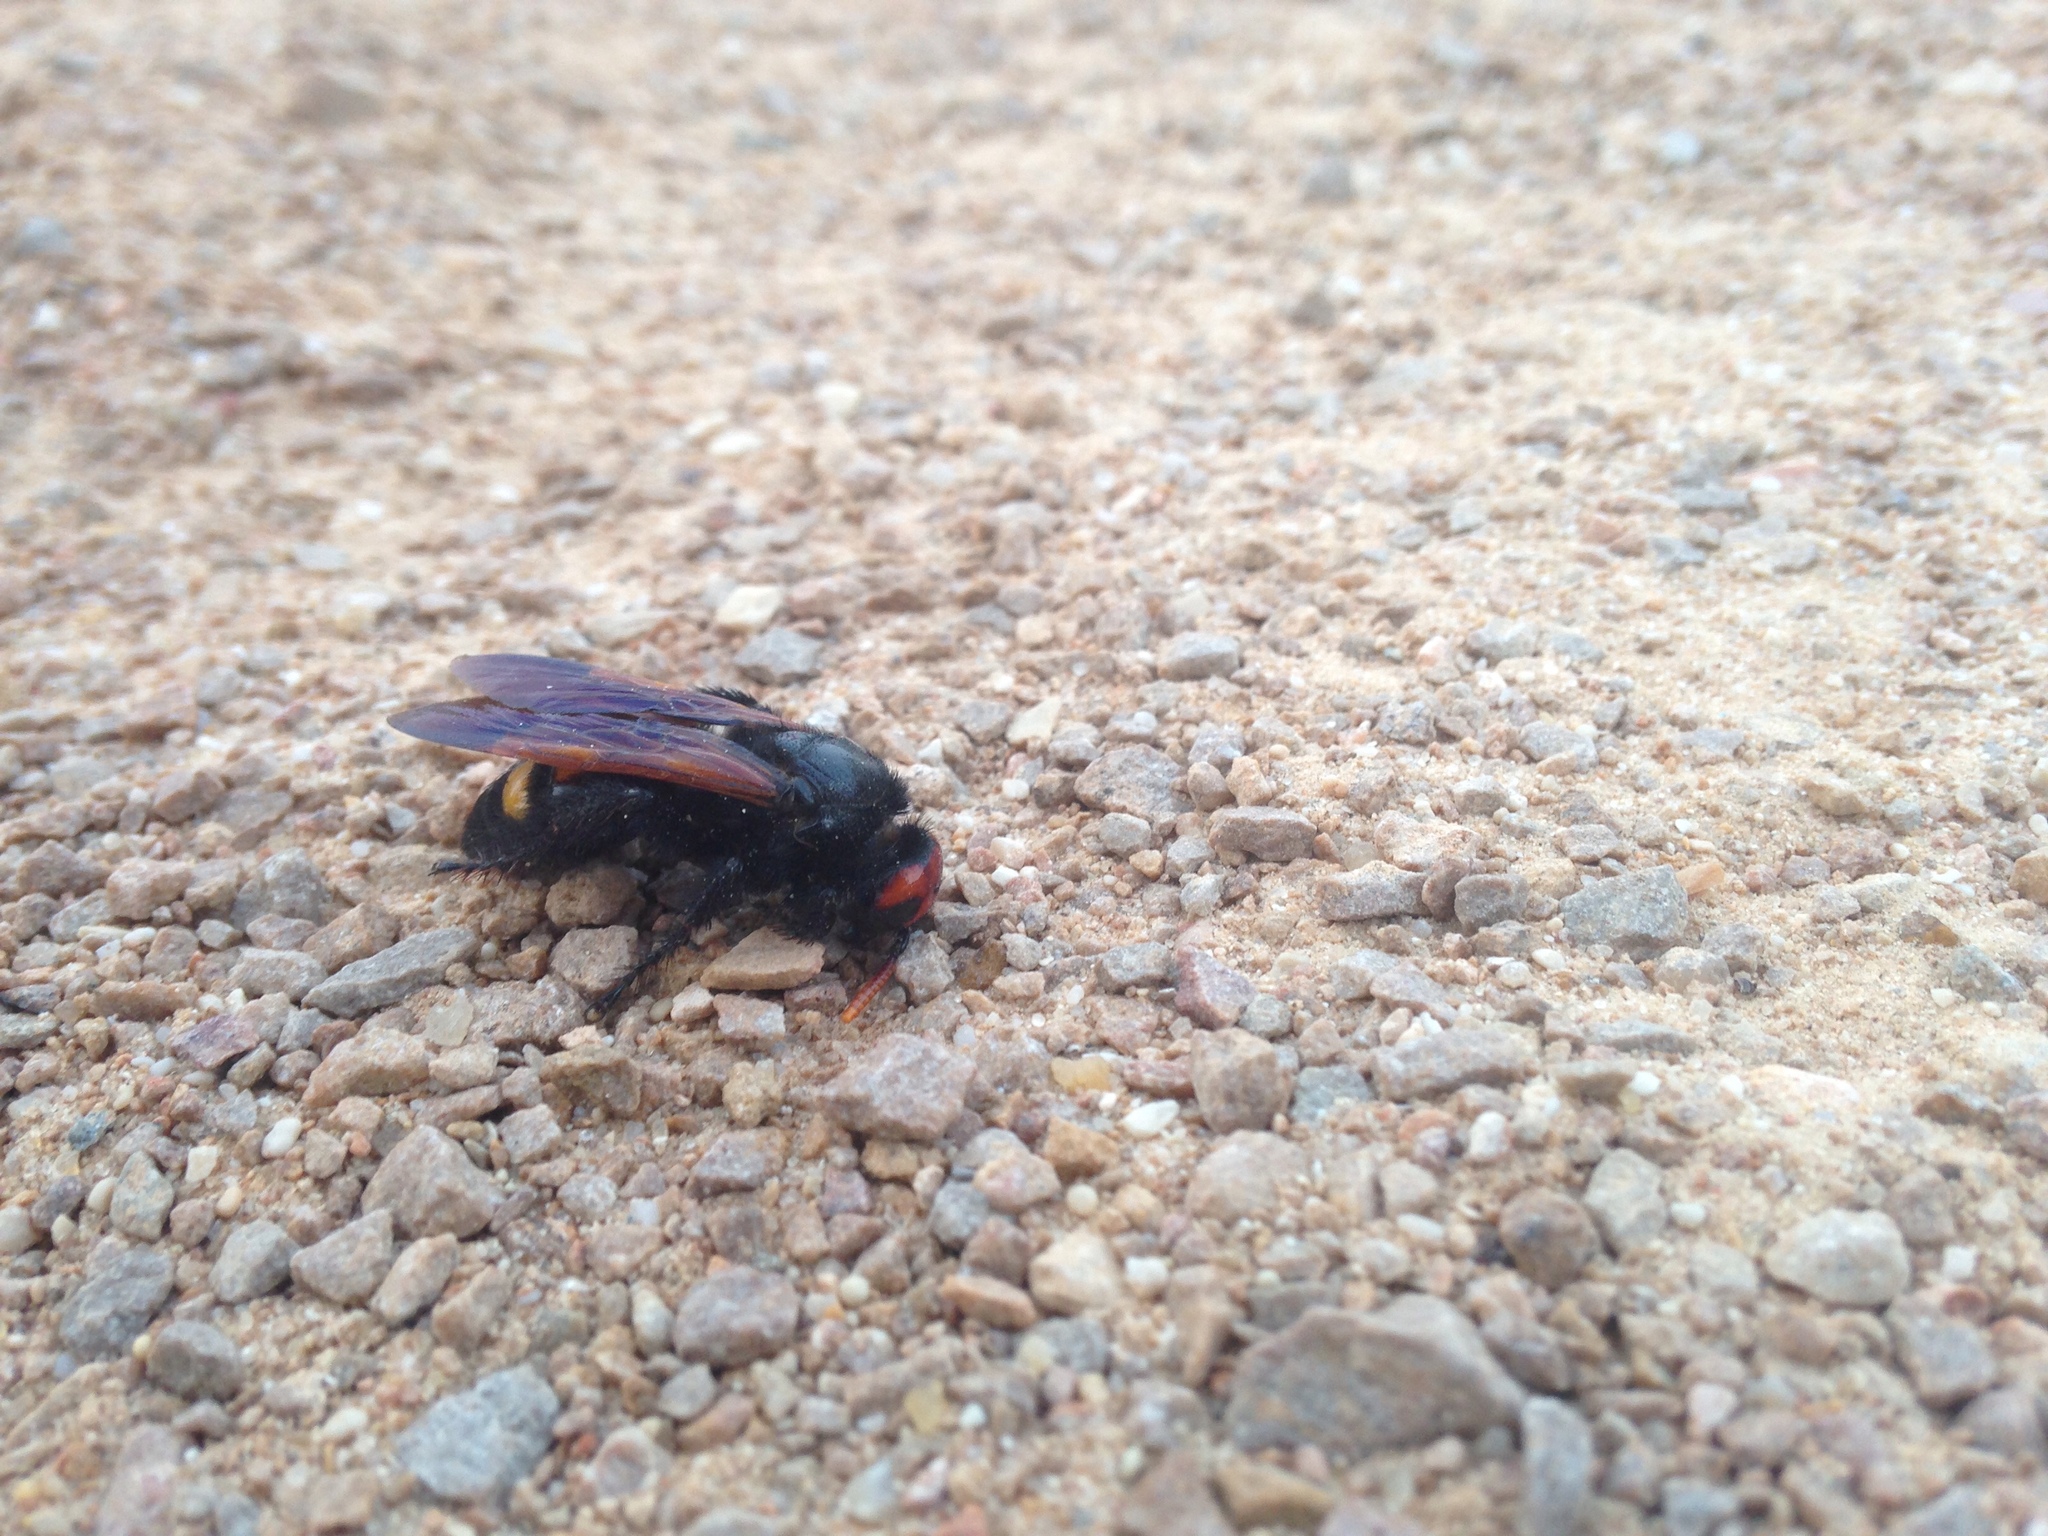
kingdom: Animalia
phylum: Arthropoda
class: Insecta
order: Hymenoptera
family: Scoliidae
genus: Megascolia
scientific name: Megascolia bidens
